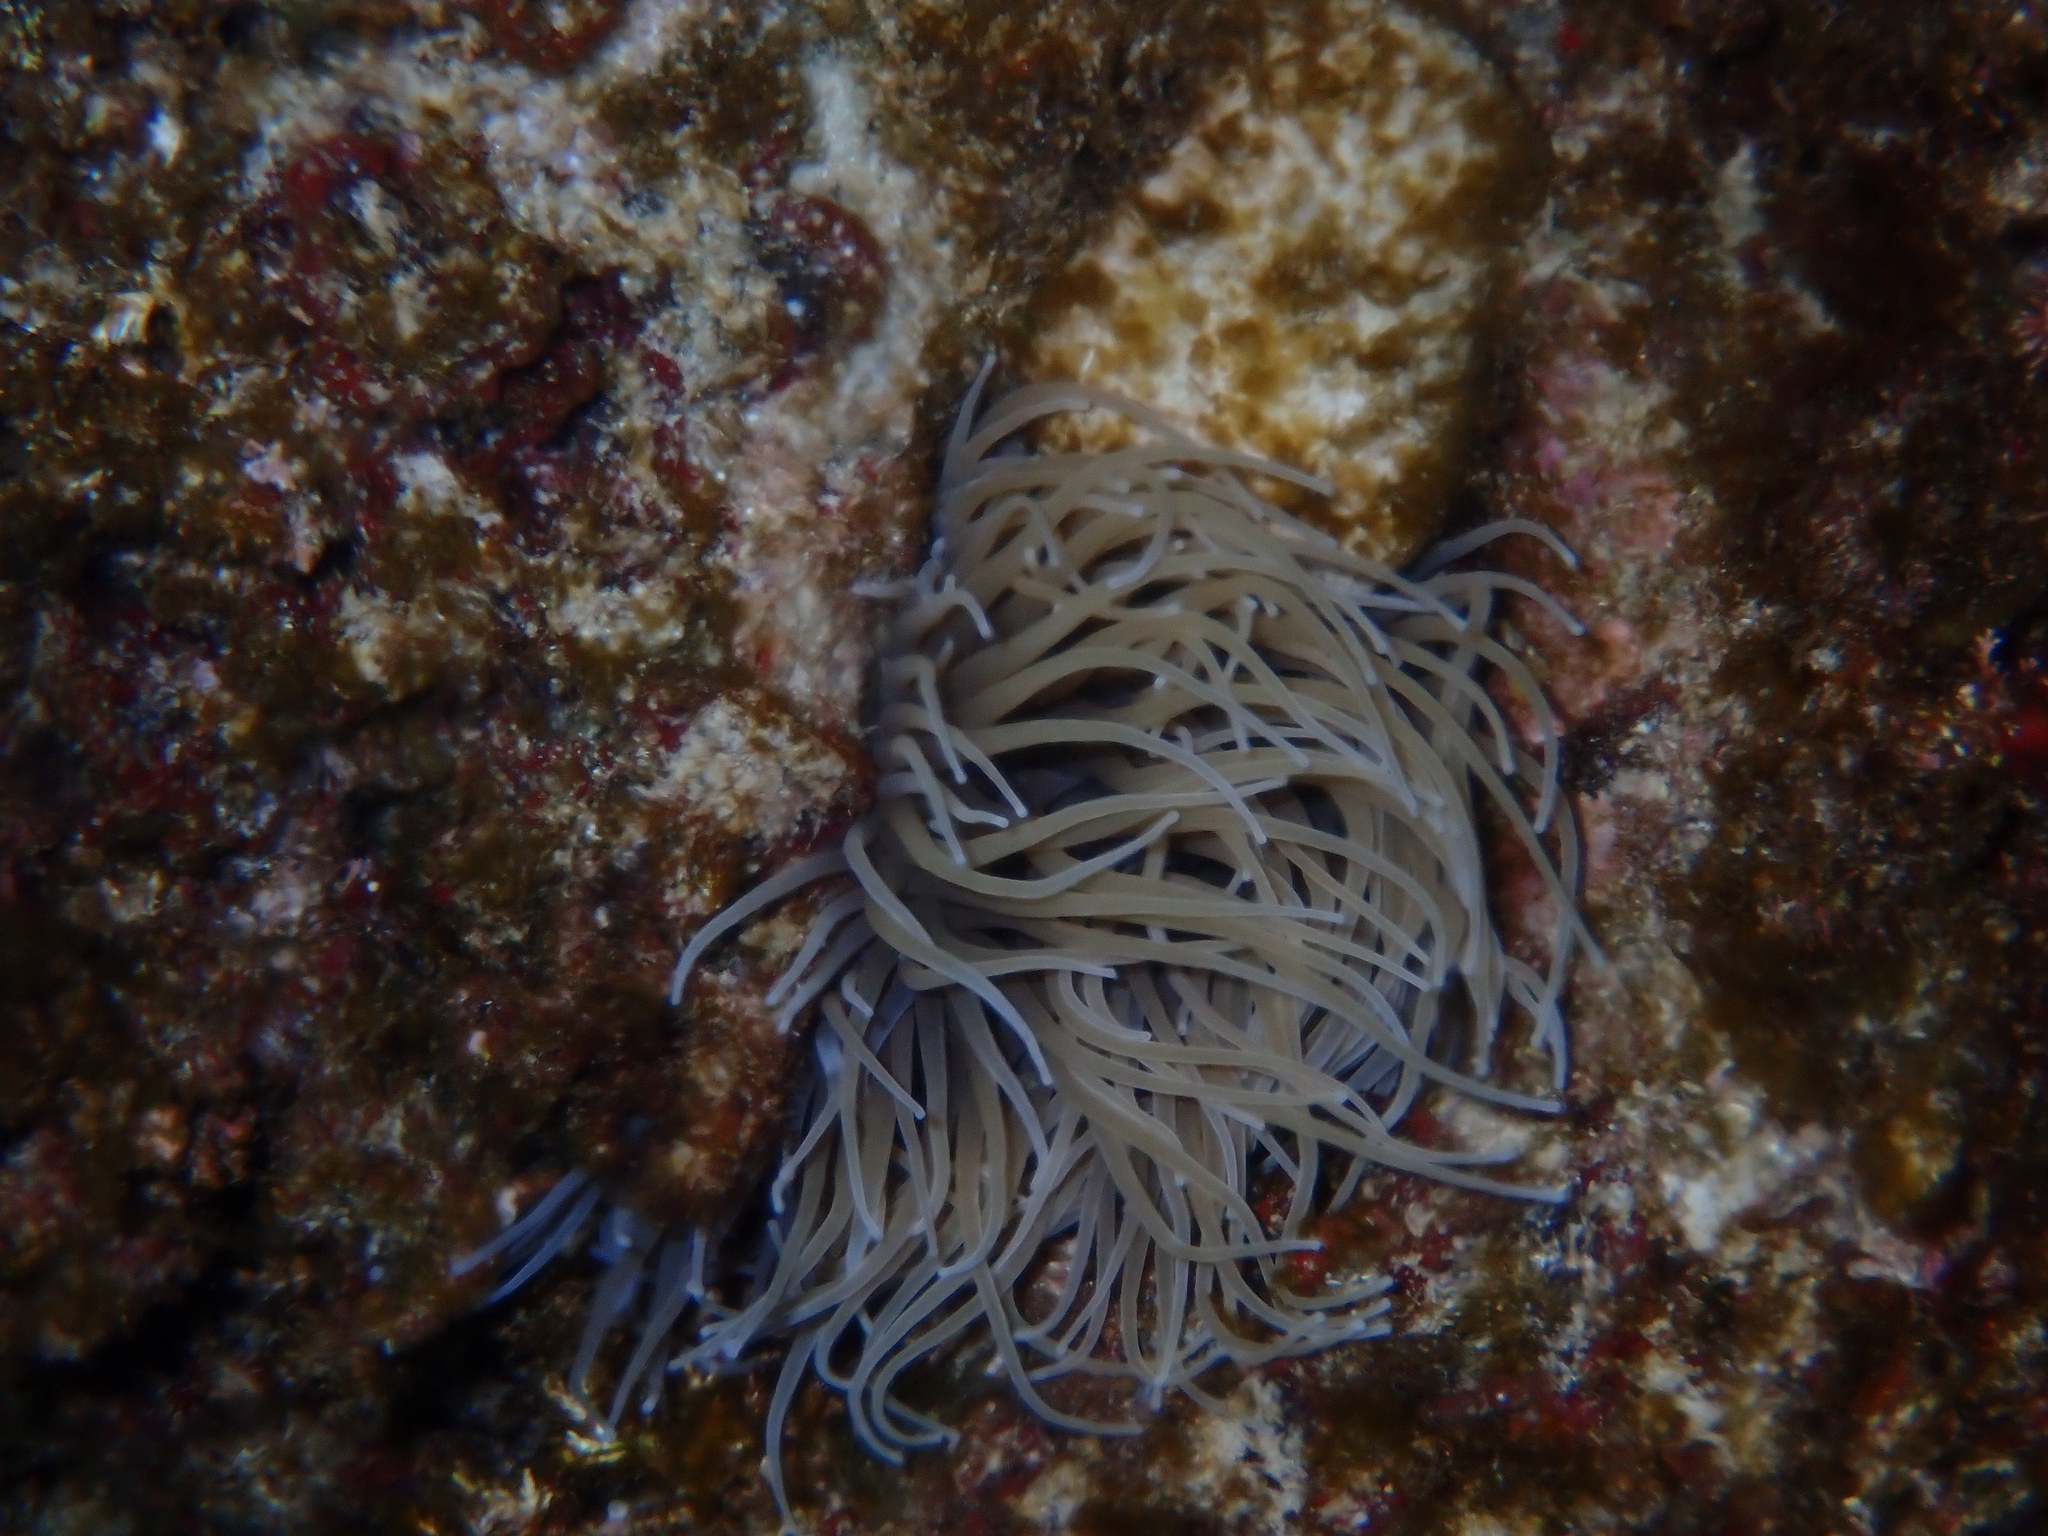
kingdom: Animalia
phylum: Cnidaria
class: Anthozoa
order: Actiniaria
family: Actiniidae
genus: Anemonia
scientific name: Anemonia viridis
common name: Snakelocks anemone
